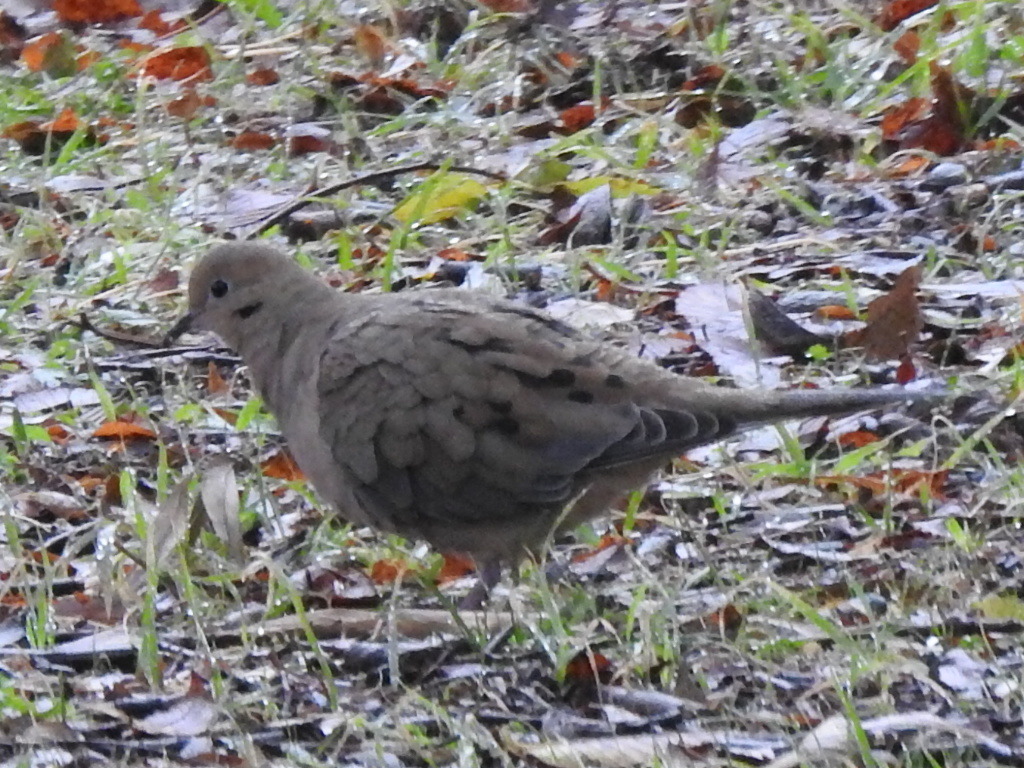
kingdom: Animalia
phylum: Chordata
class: Aves
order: Columbiformes
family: Columbidae
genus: Zenaida
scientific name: Zenaida macroura
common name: Mourning dove
